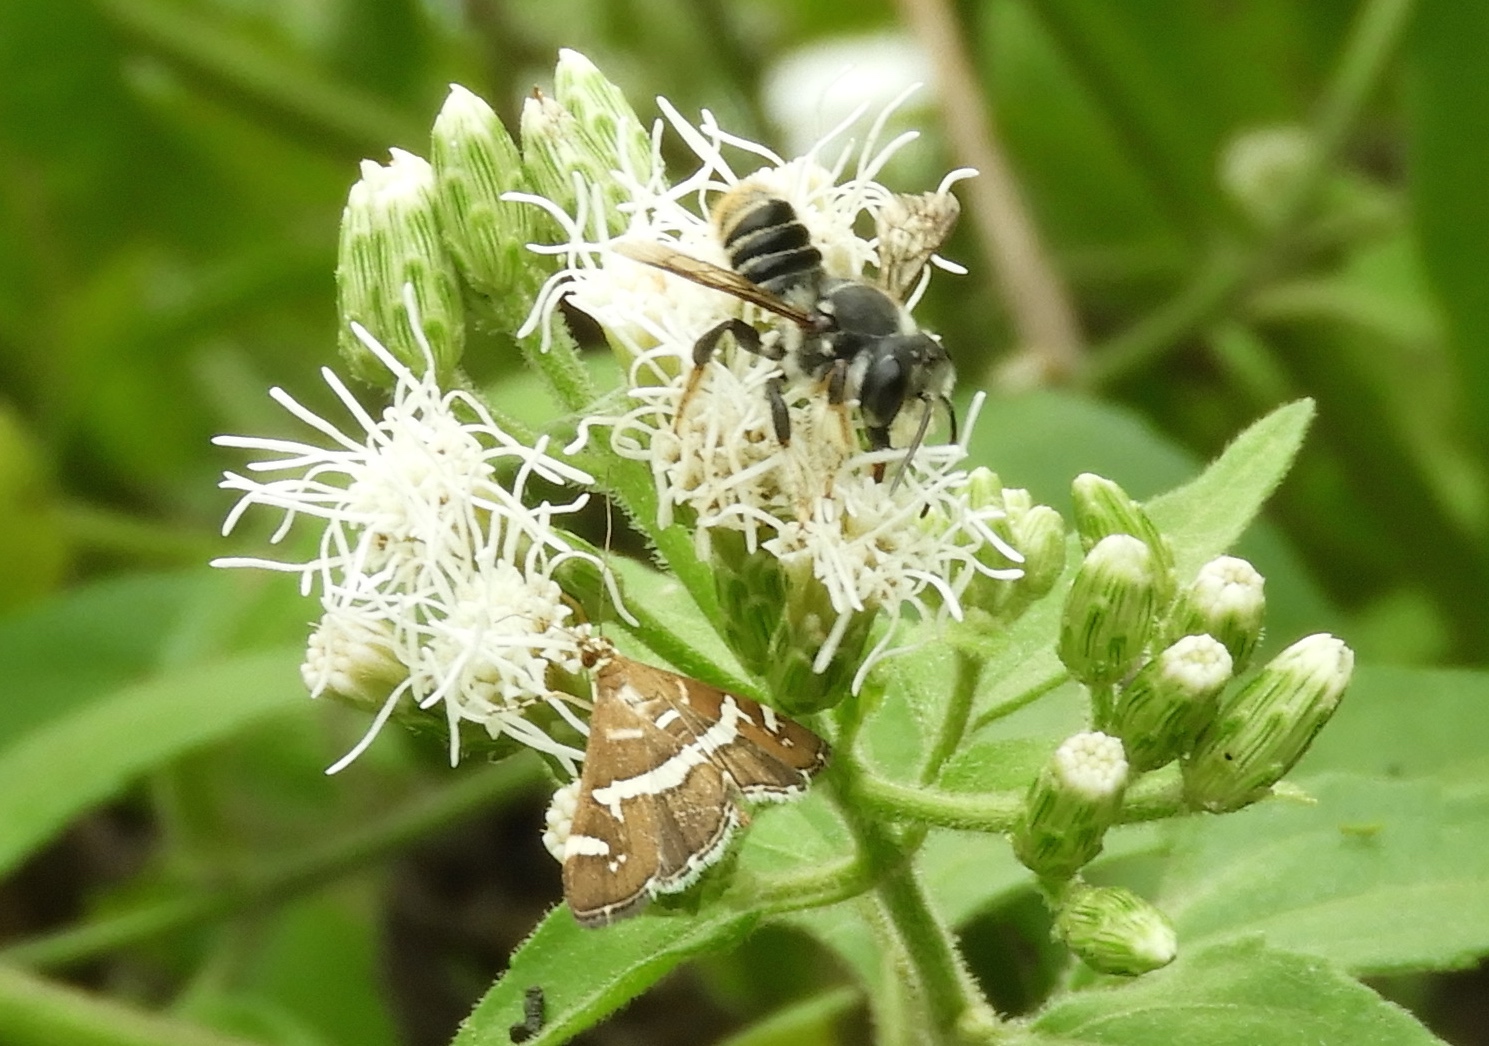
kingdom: Animalia
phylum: Arthropoda
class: Insecta
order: Hymenoptera
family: Megachilidae
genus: Megachile
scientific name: Megachile
